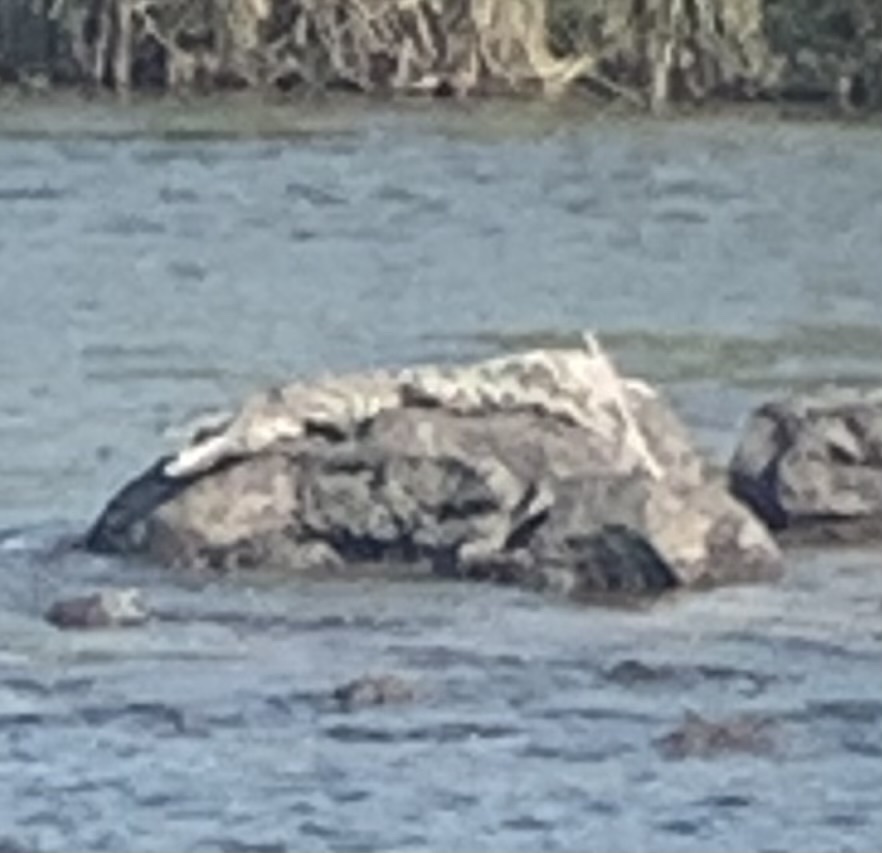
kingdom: Animalia
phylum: Chordata
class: Crocodylia
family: Crocodylidae
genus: Crocodylus
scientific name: Crocodylus niloticus
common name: Nile crocodile
